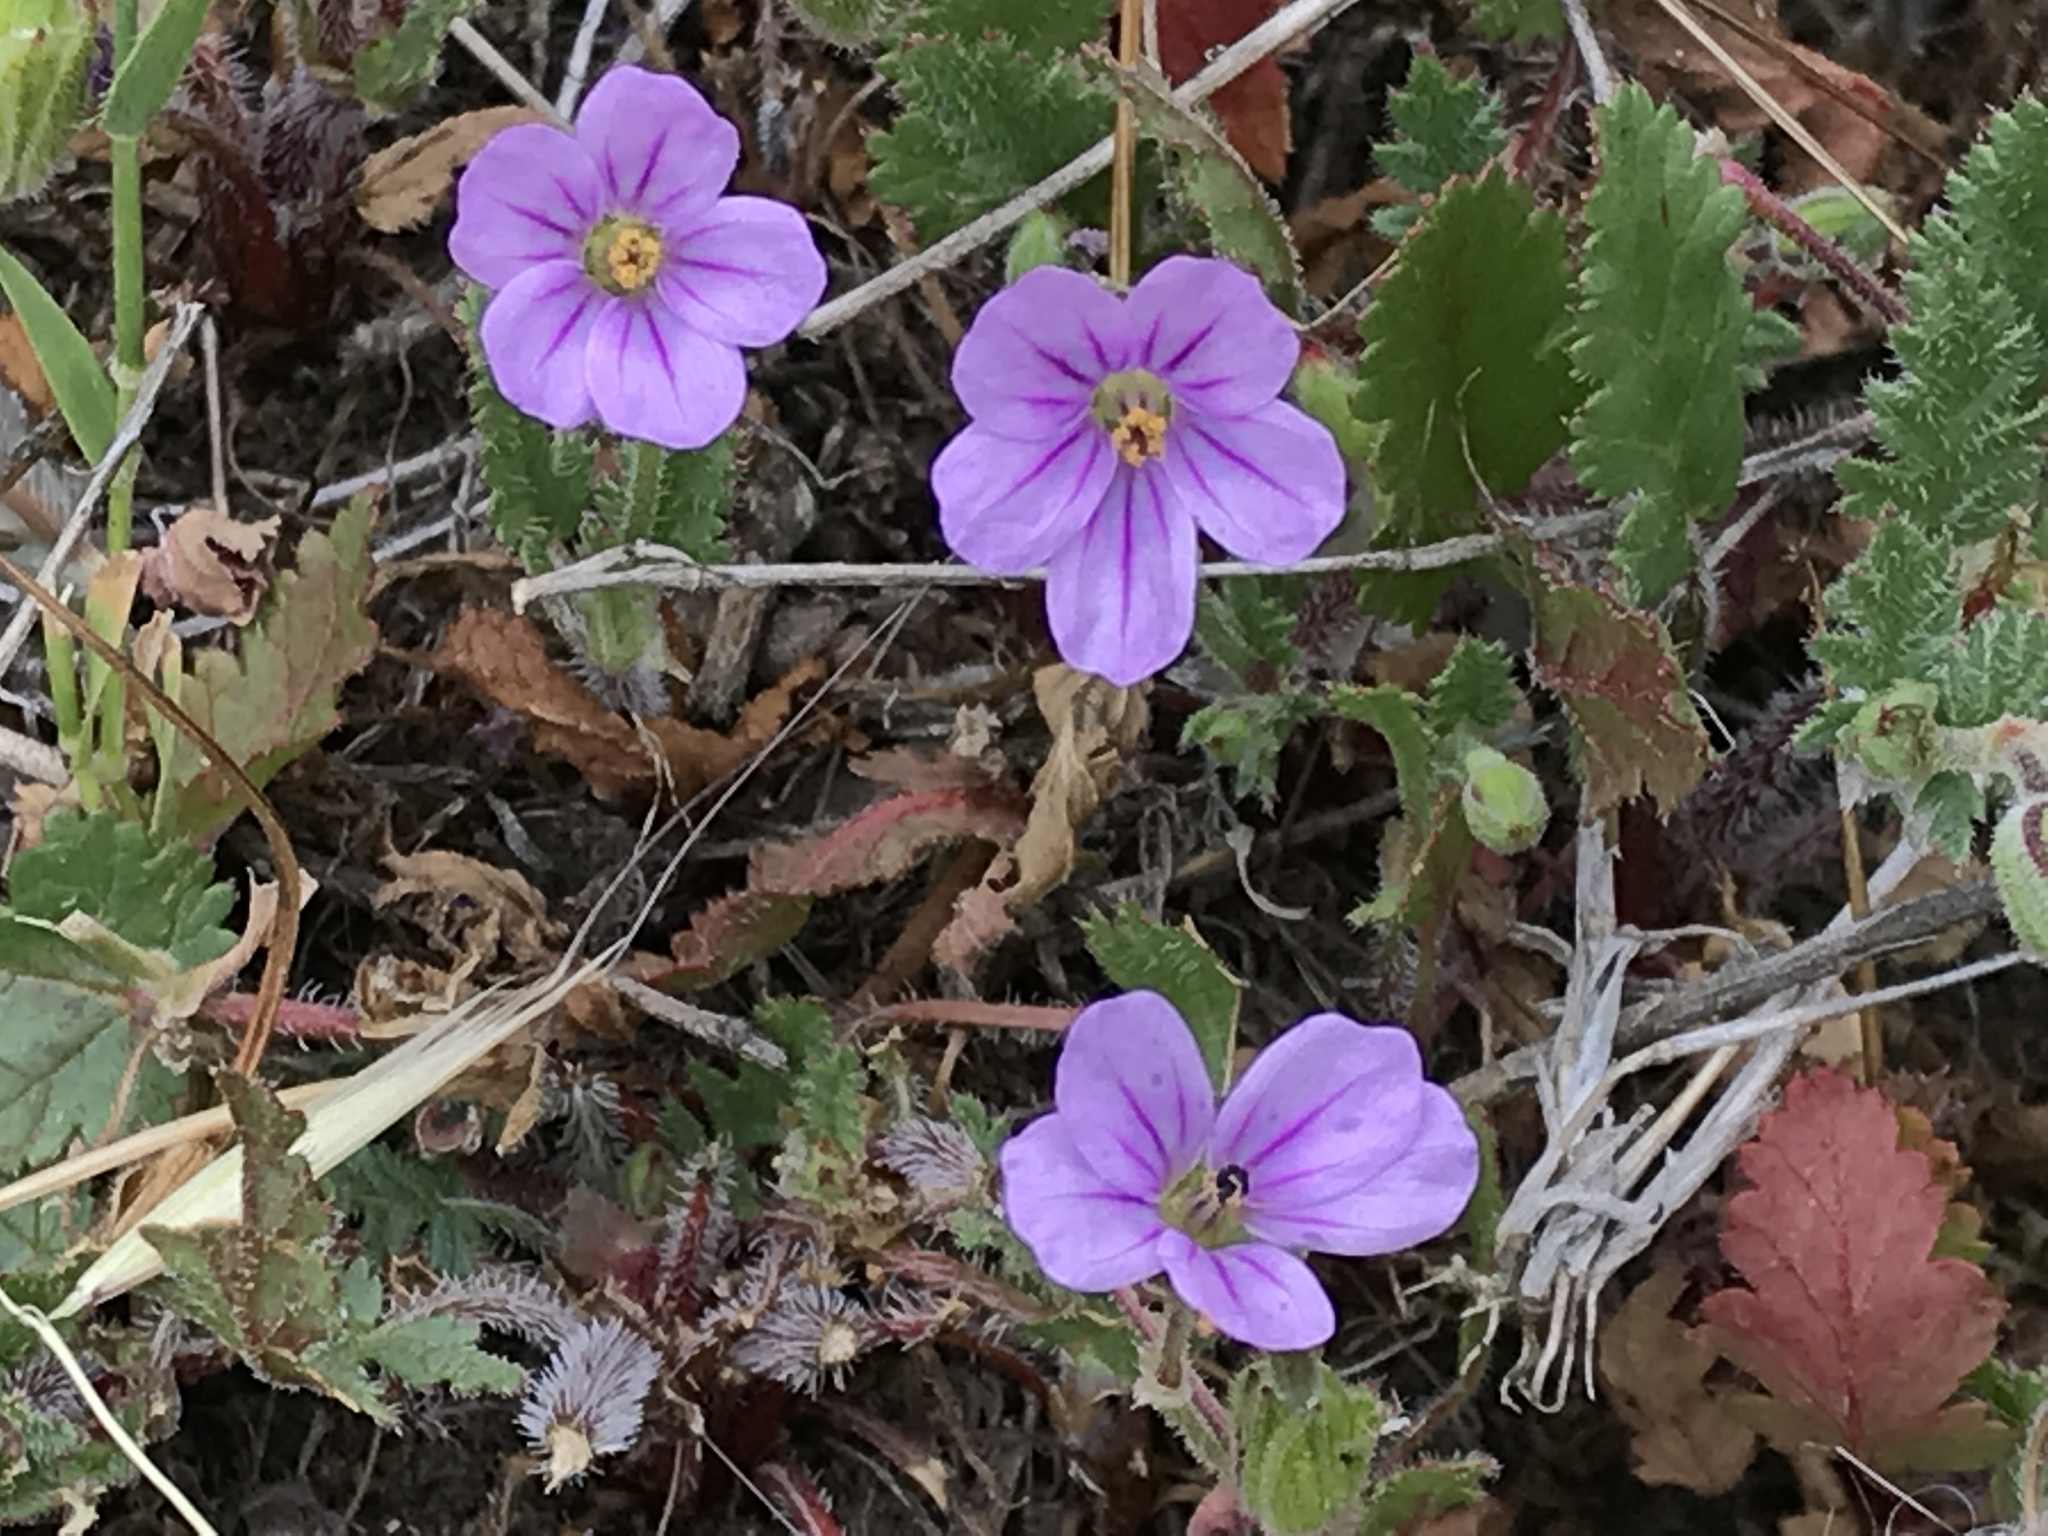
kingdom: Plantae
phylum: Tracheophyta
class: Magnoliopsida
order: Geraniales
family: Geraniaceae
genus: Erodium
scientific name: Erodium botrys
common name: Mediterranean stork's-bill
